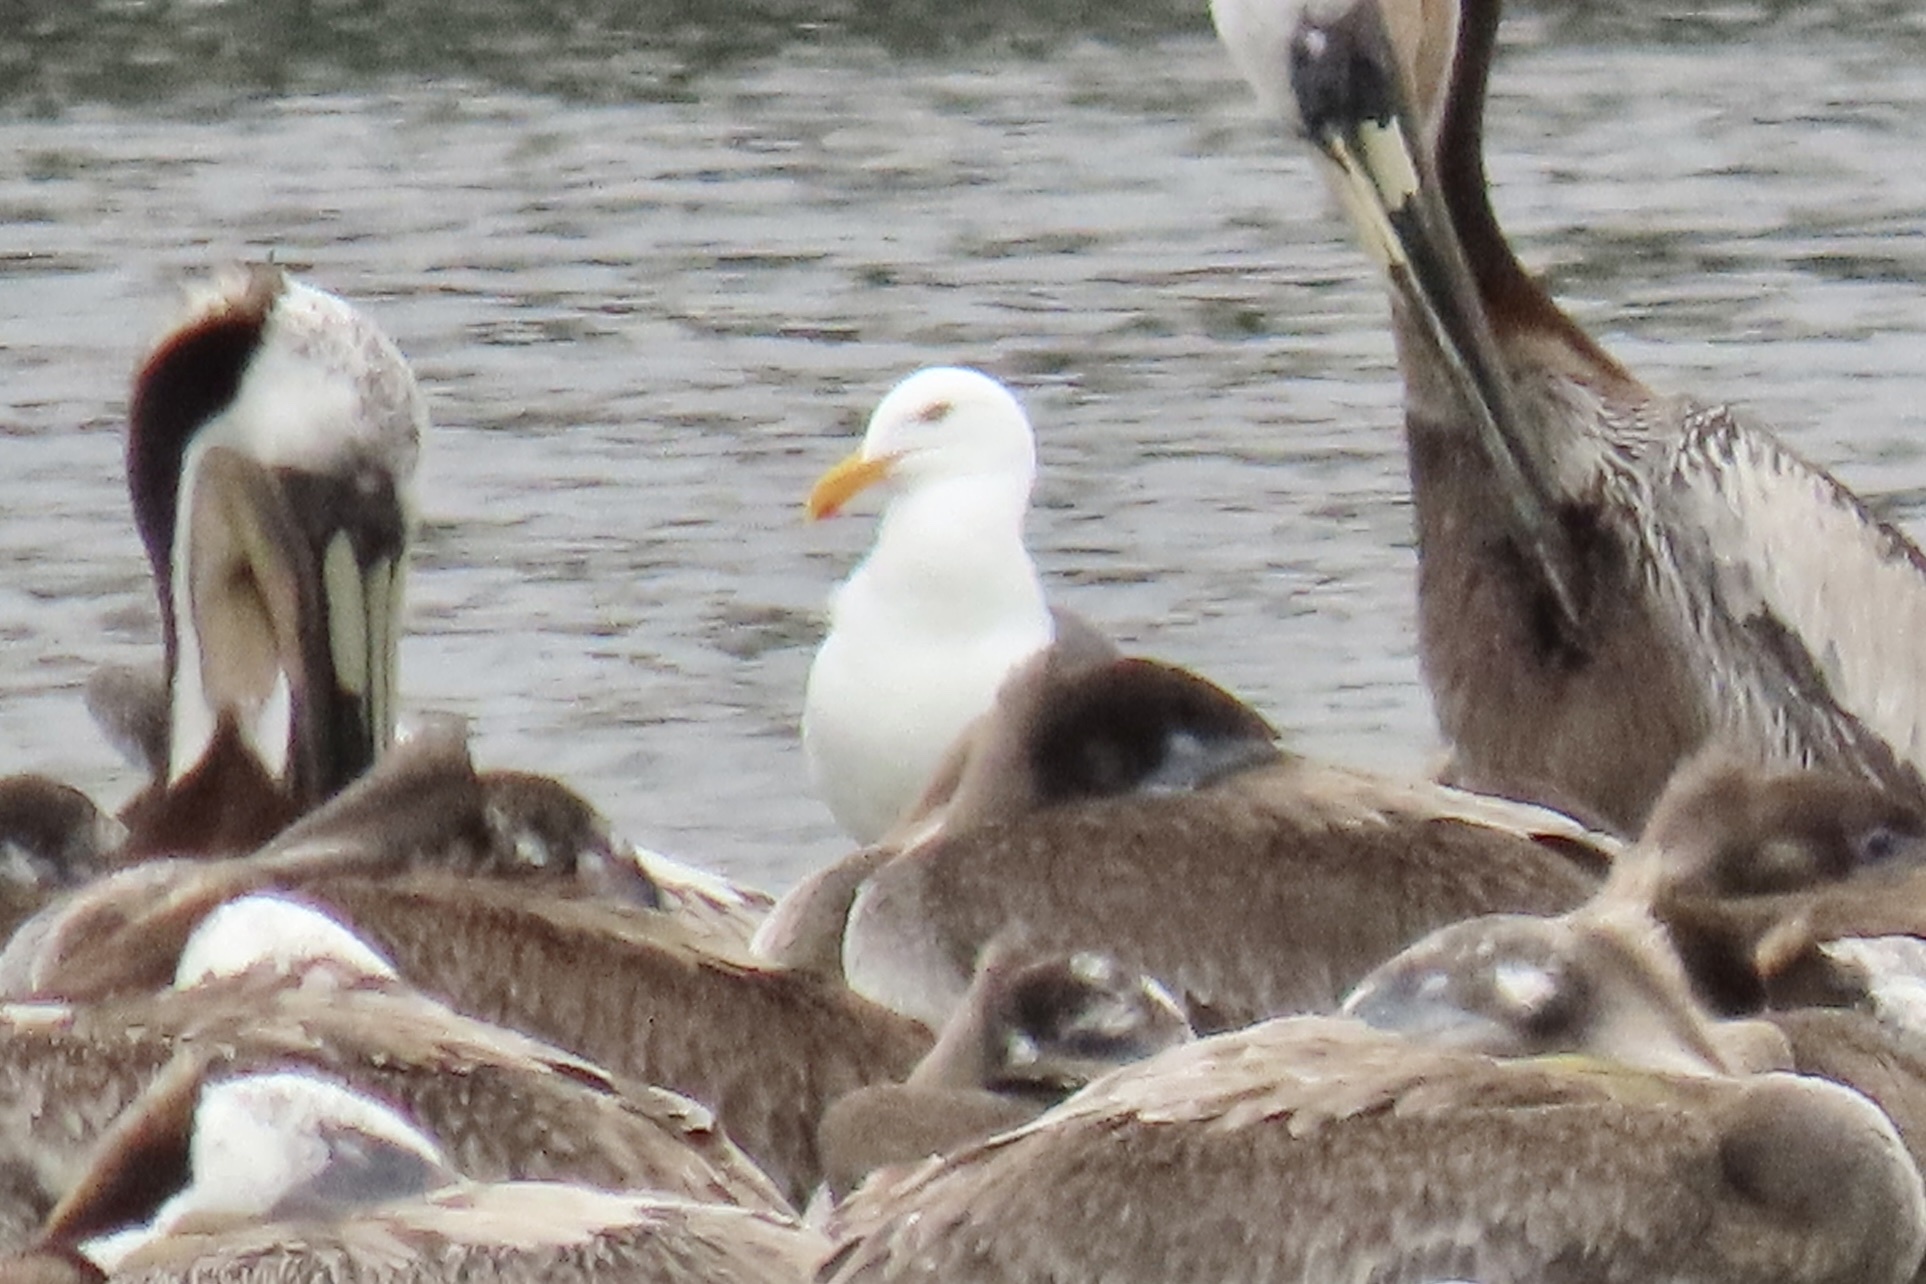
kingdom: Animalia
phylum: Chordata
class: Aves
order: Charadriiformes
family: Laridae
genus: Larus
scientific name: Larus occidentalis
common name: Western gull
